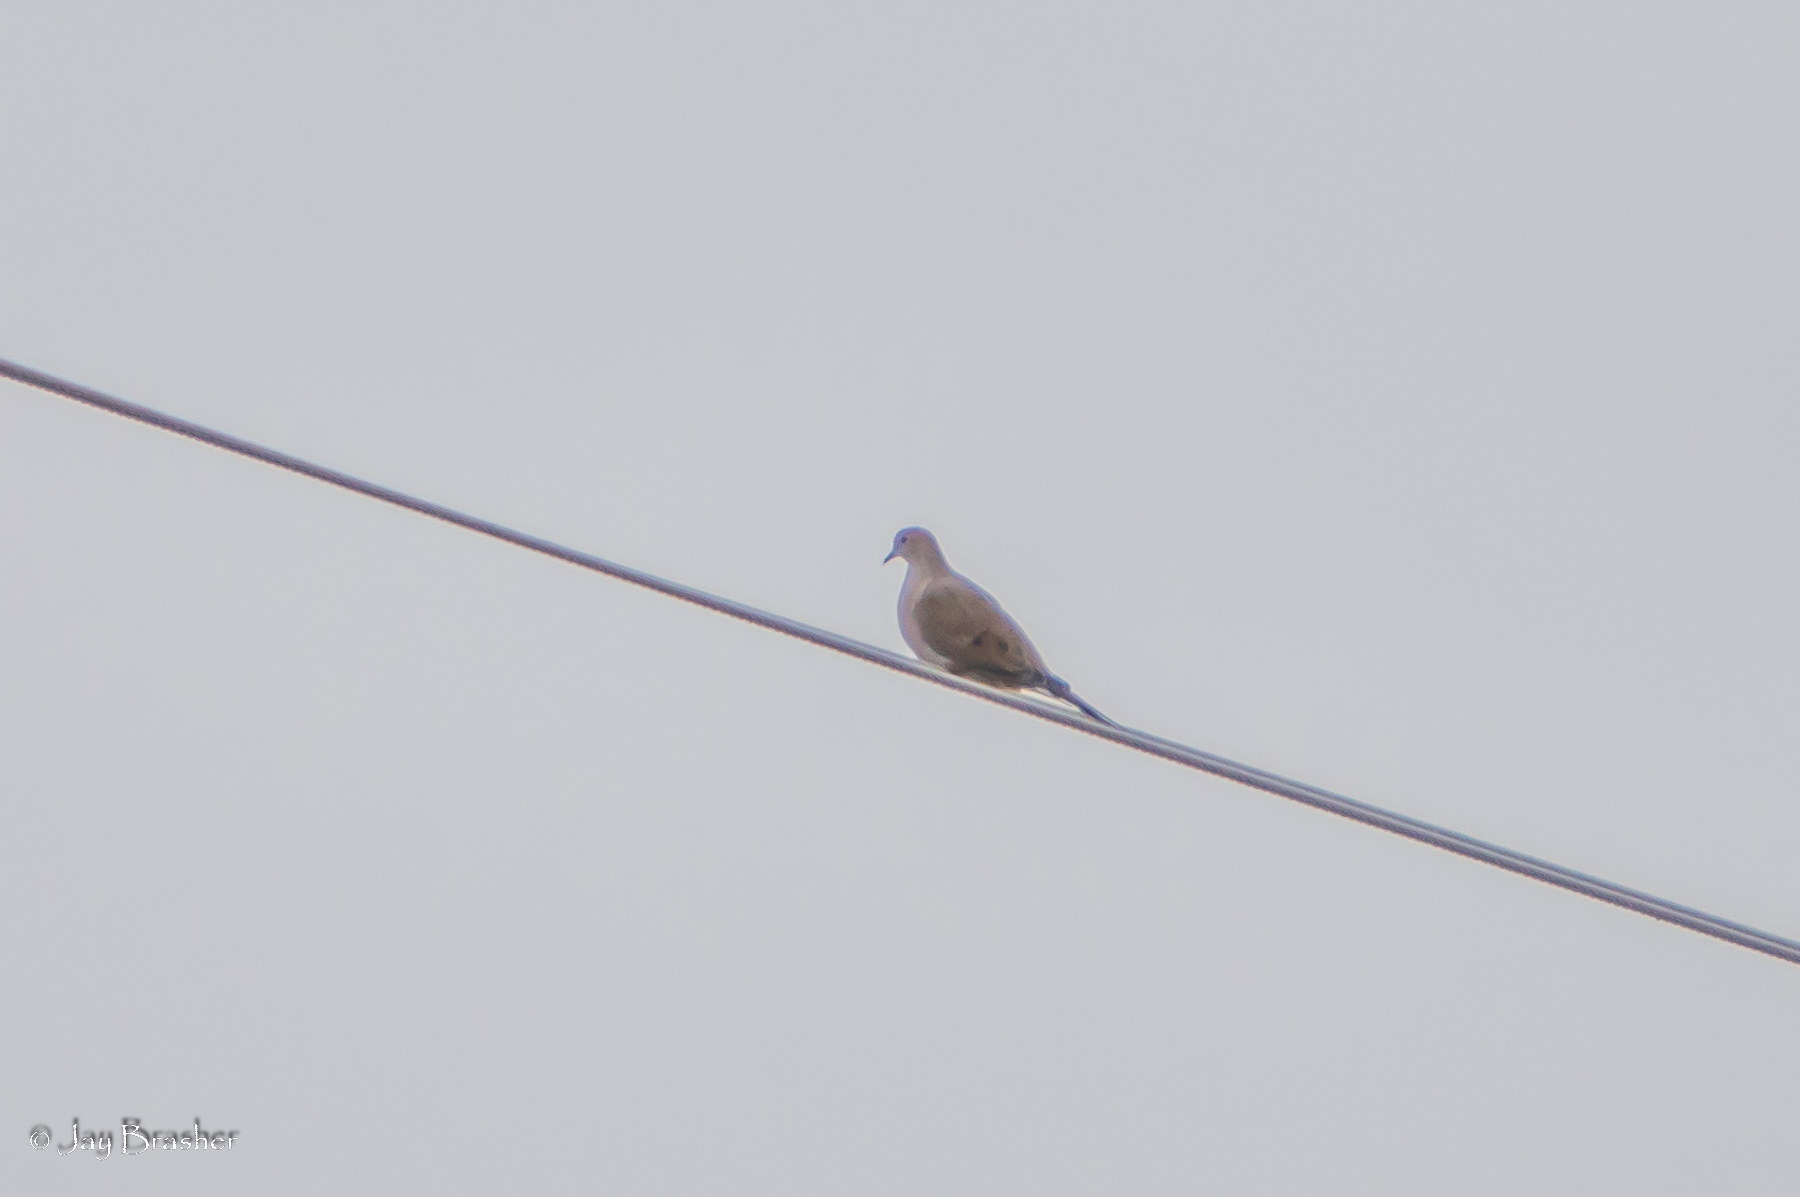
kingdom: Animalia
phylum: Chordata
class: Aves
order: Columbiformes
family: Columbidae
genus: Zenaida
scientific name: Zenaida macroura
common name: Mourning dove
